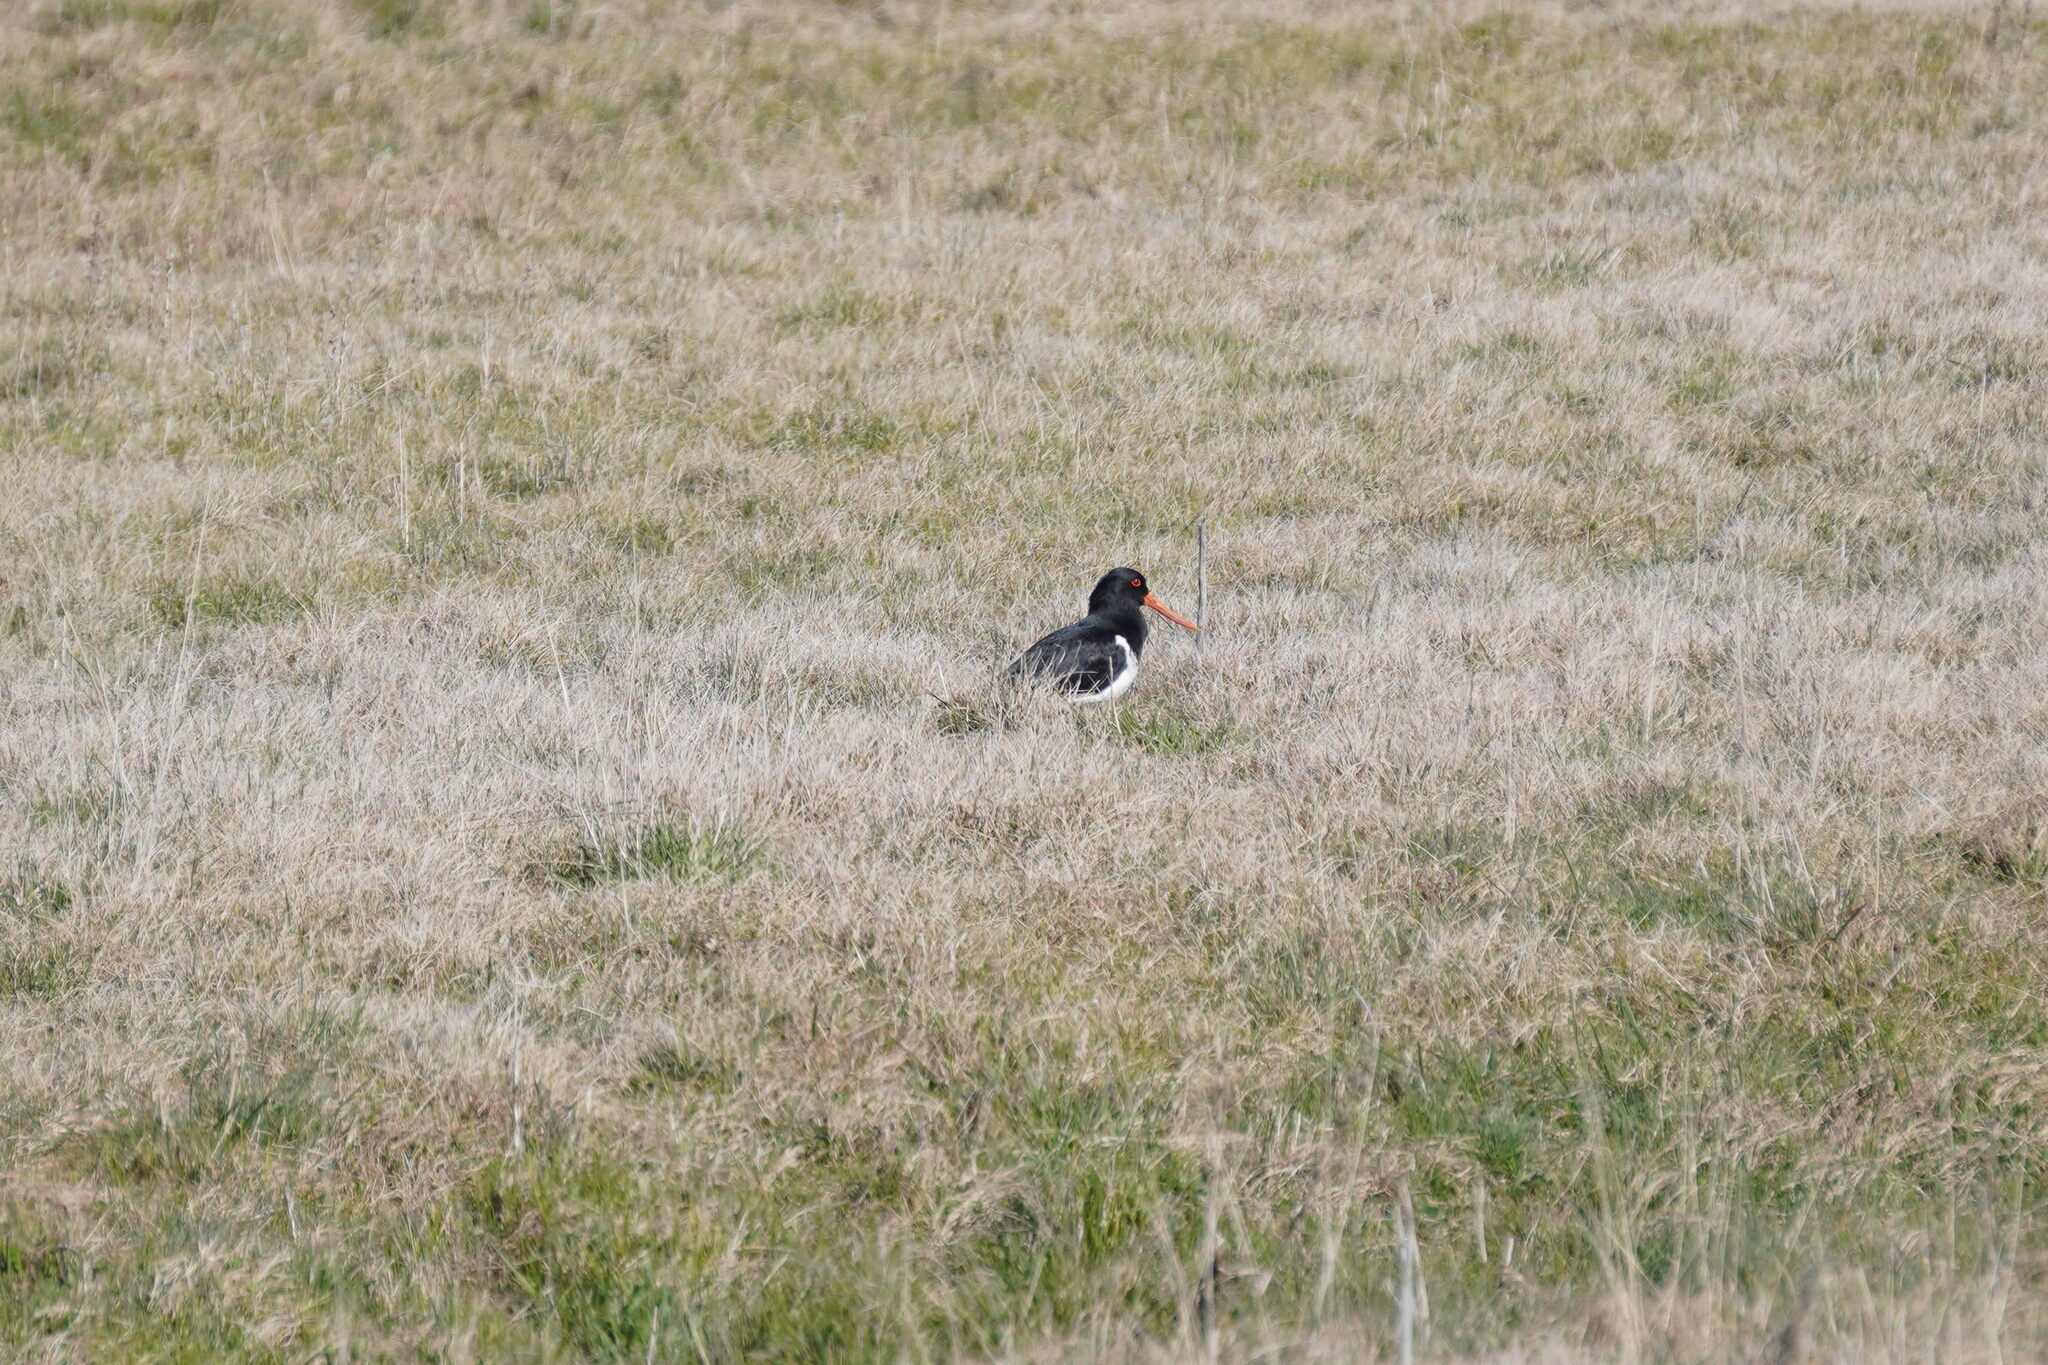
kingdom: Animalia
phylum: Chordata
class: Aves
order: Charadriiformes
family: Haematopodidae
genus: Haematopus
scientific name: Haematopus finschi
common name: South island oystercatcher
